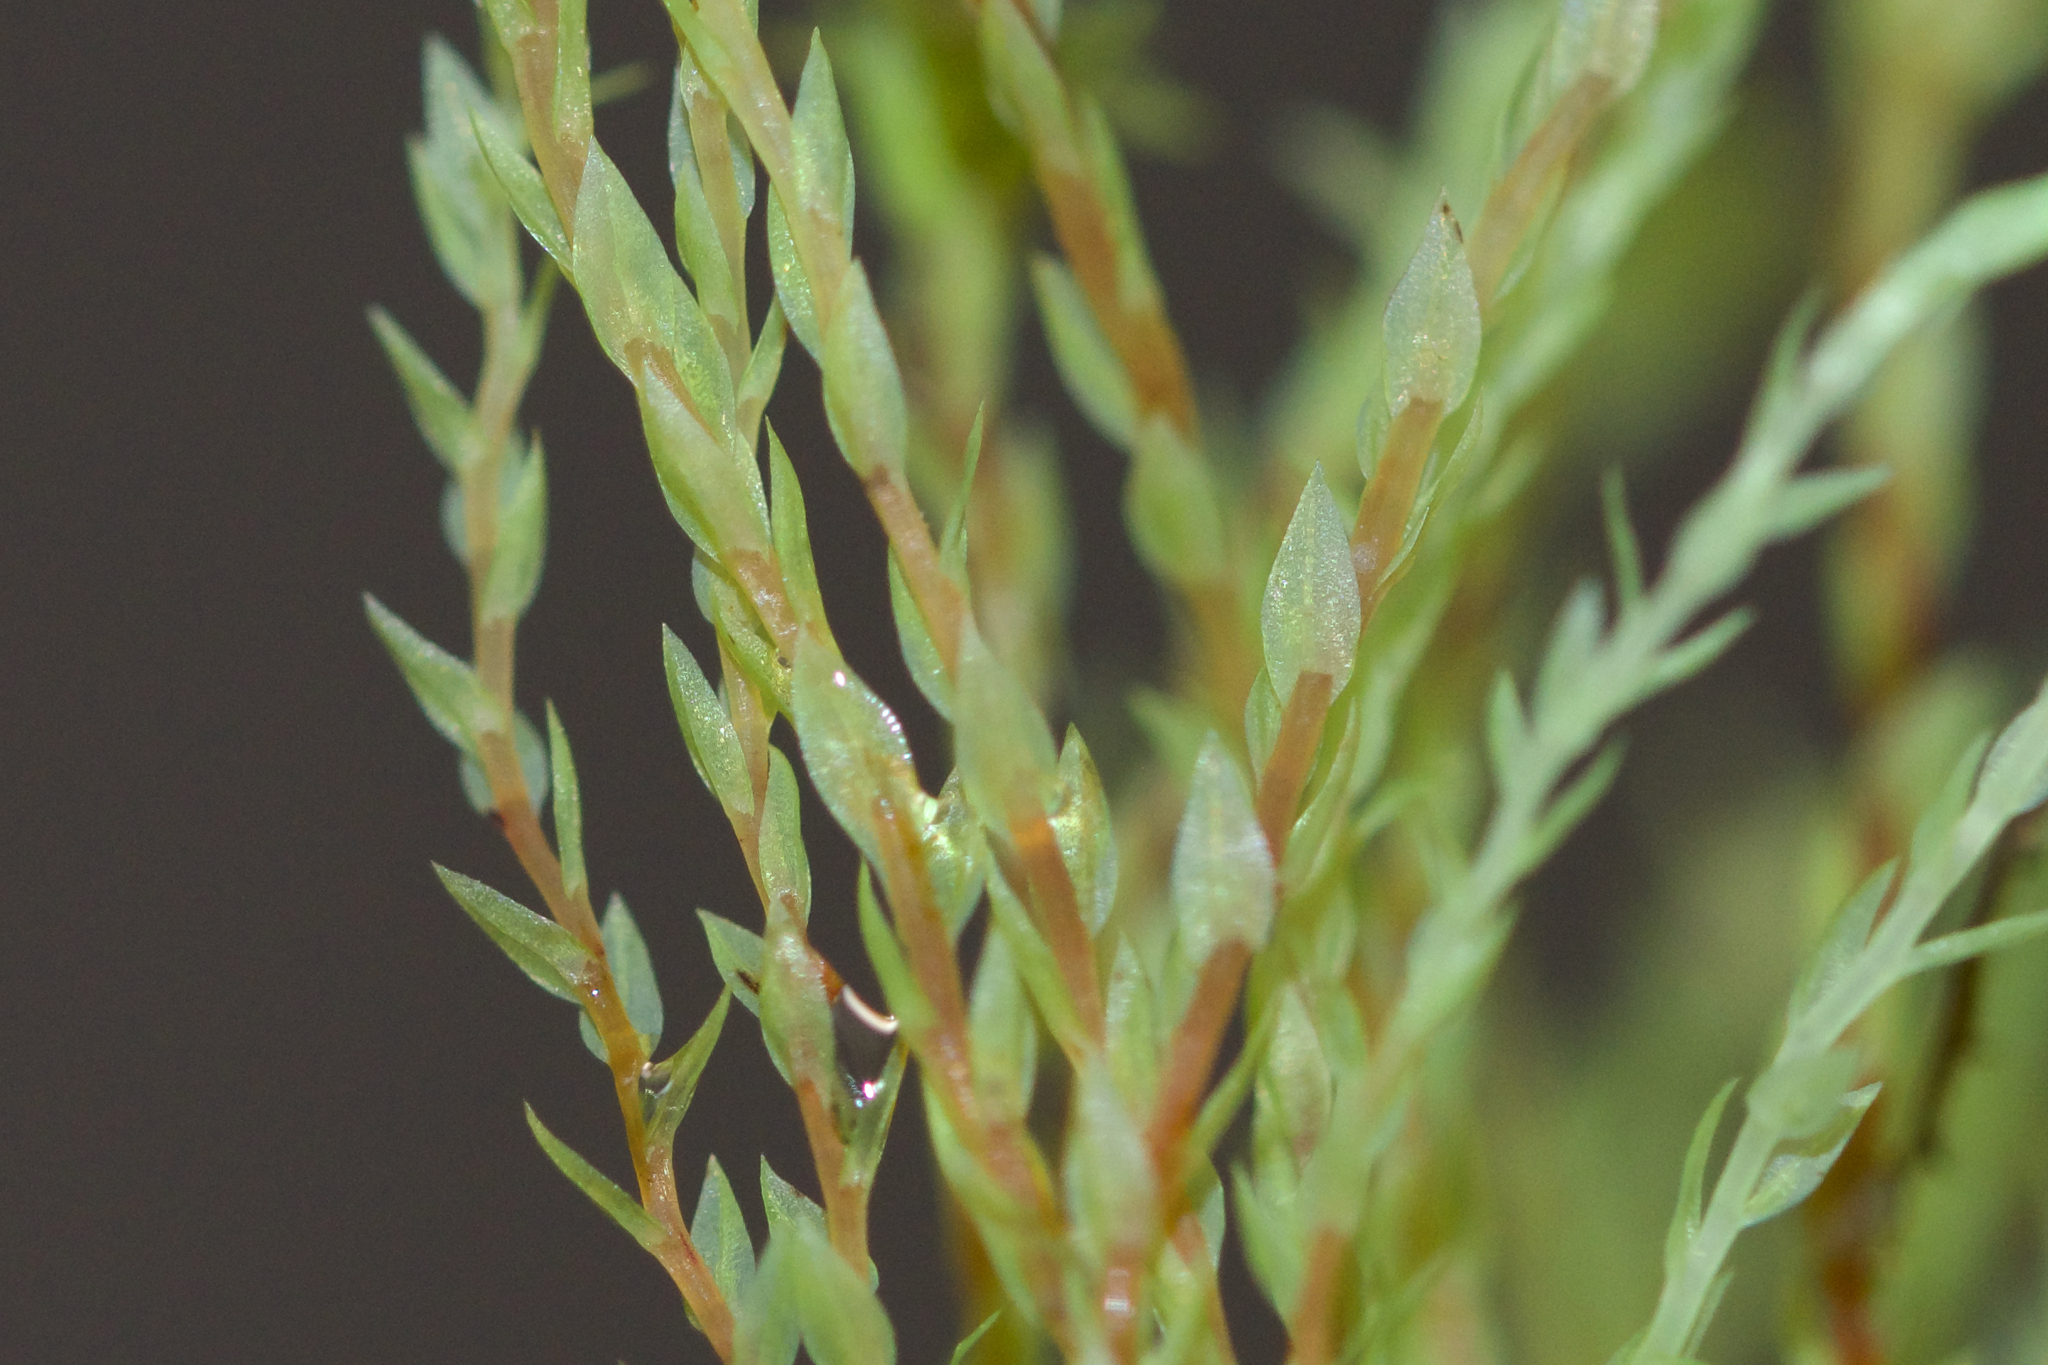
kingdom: Plantae
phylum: Bryophyta
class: Bryopsida
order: Bartramiales
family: Bartramiaceae
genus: Philonotis
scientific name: Philonotis fontana
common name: Fountain apple-moss
